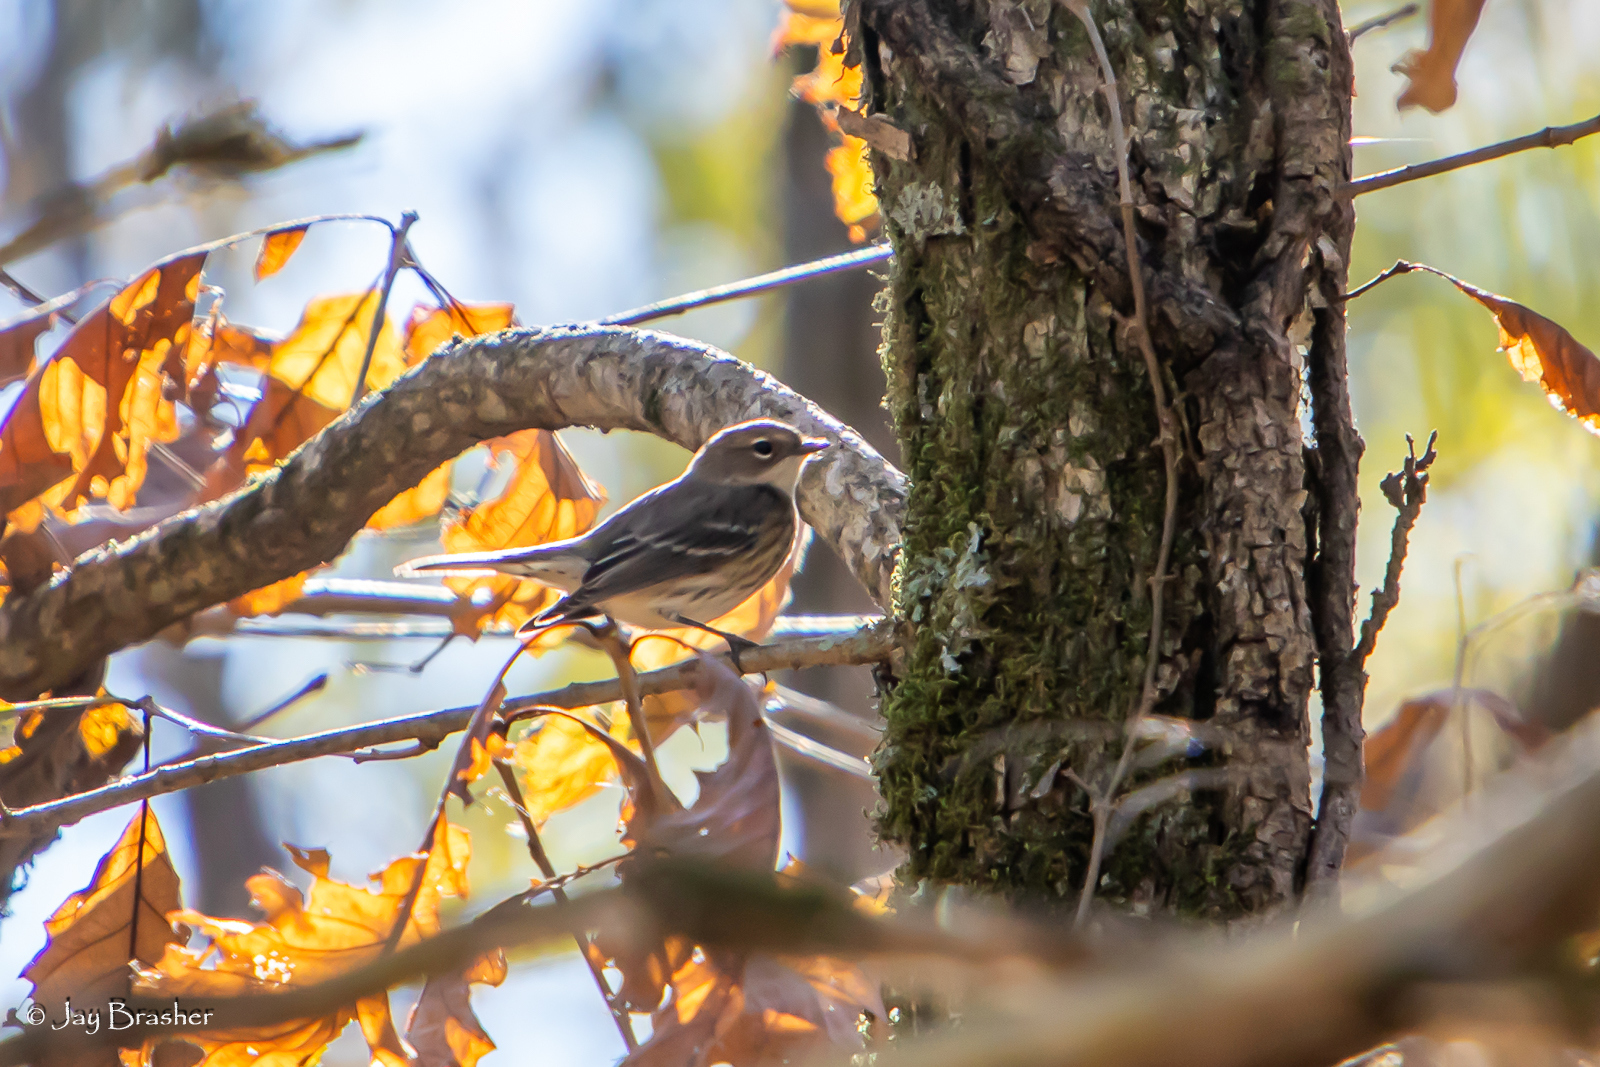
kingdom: Animalia
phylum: Chordata
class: Aves
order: Passeriformes
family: Parulidae
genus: Setophaga
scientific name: Setophaga coronata
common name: Myrtle warbler
